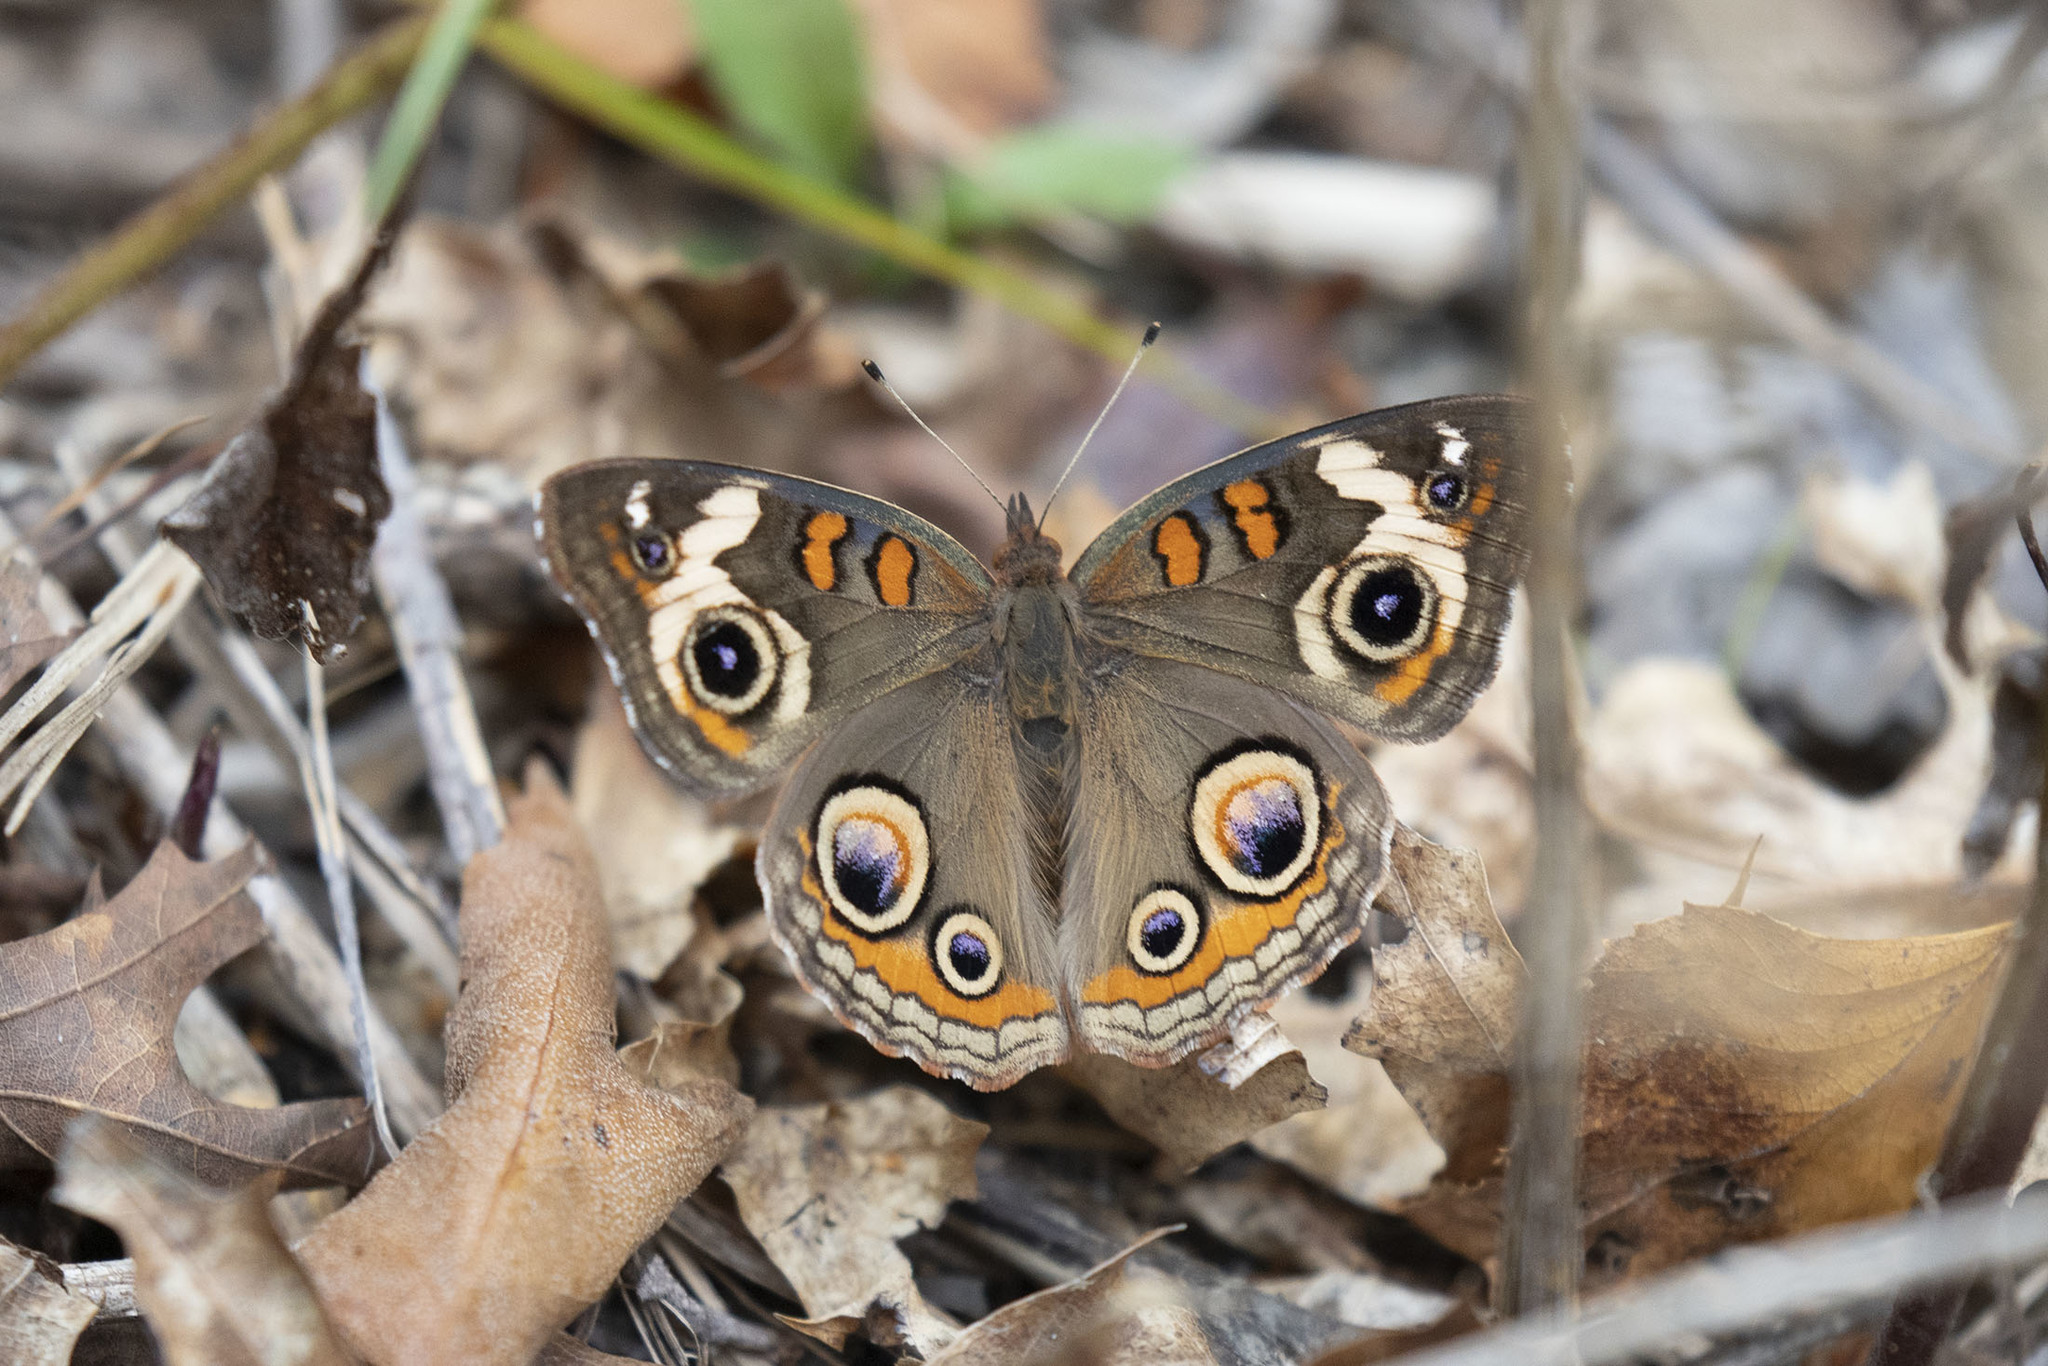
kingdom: Animalia
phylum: Arthropoda
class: Insecta
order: Lepidoptera
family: Nymphalidae
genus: Junonia
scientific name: Junonia coenia
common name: Common buckeye
